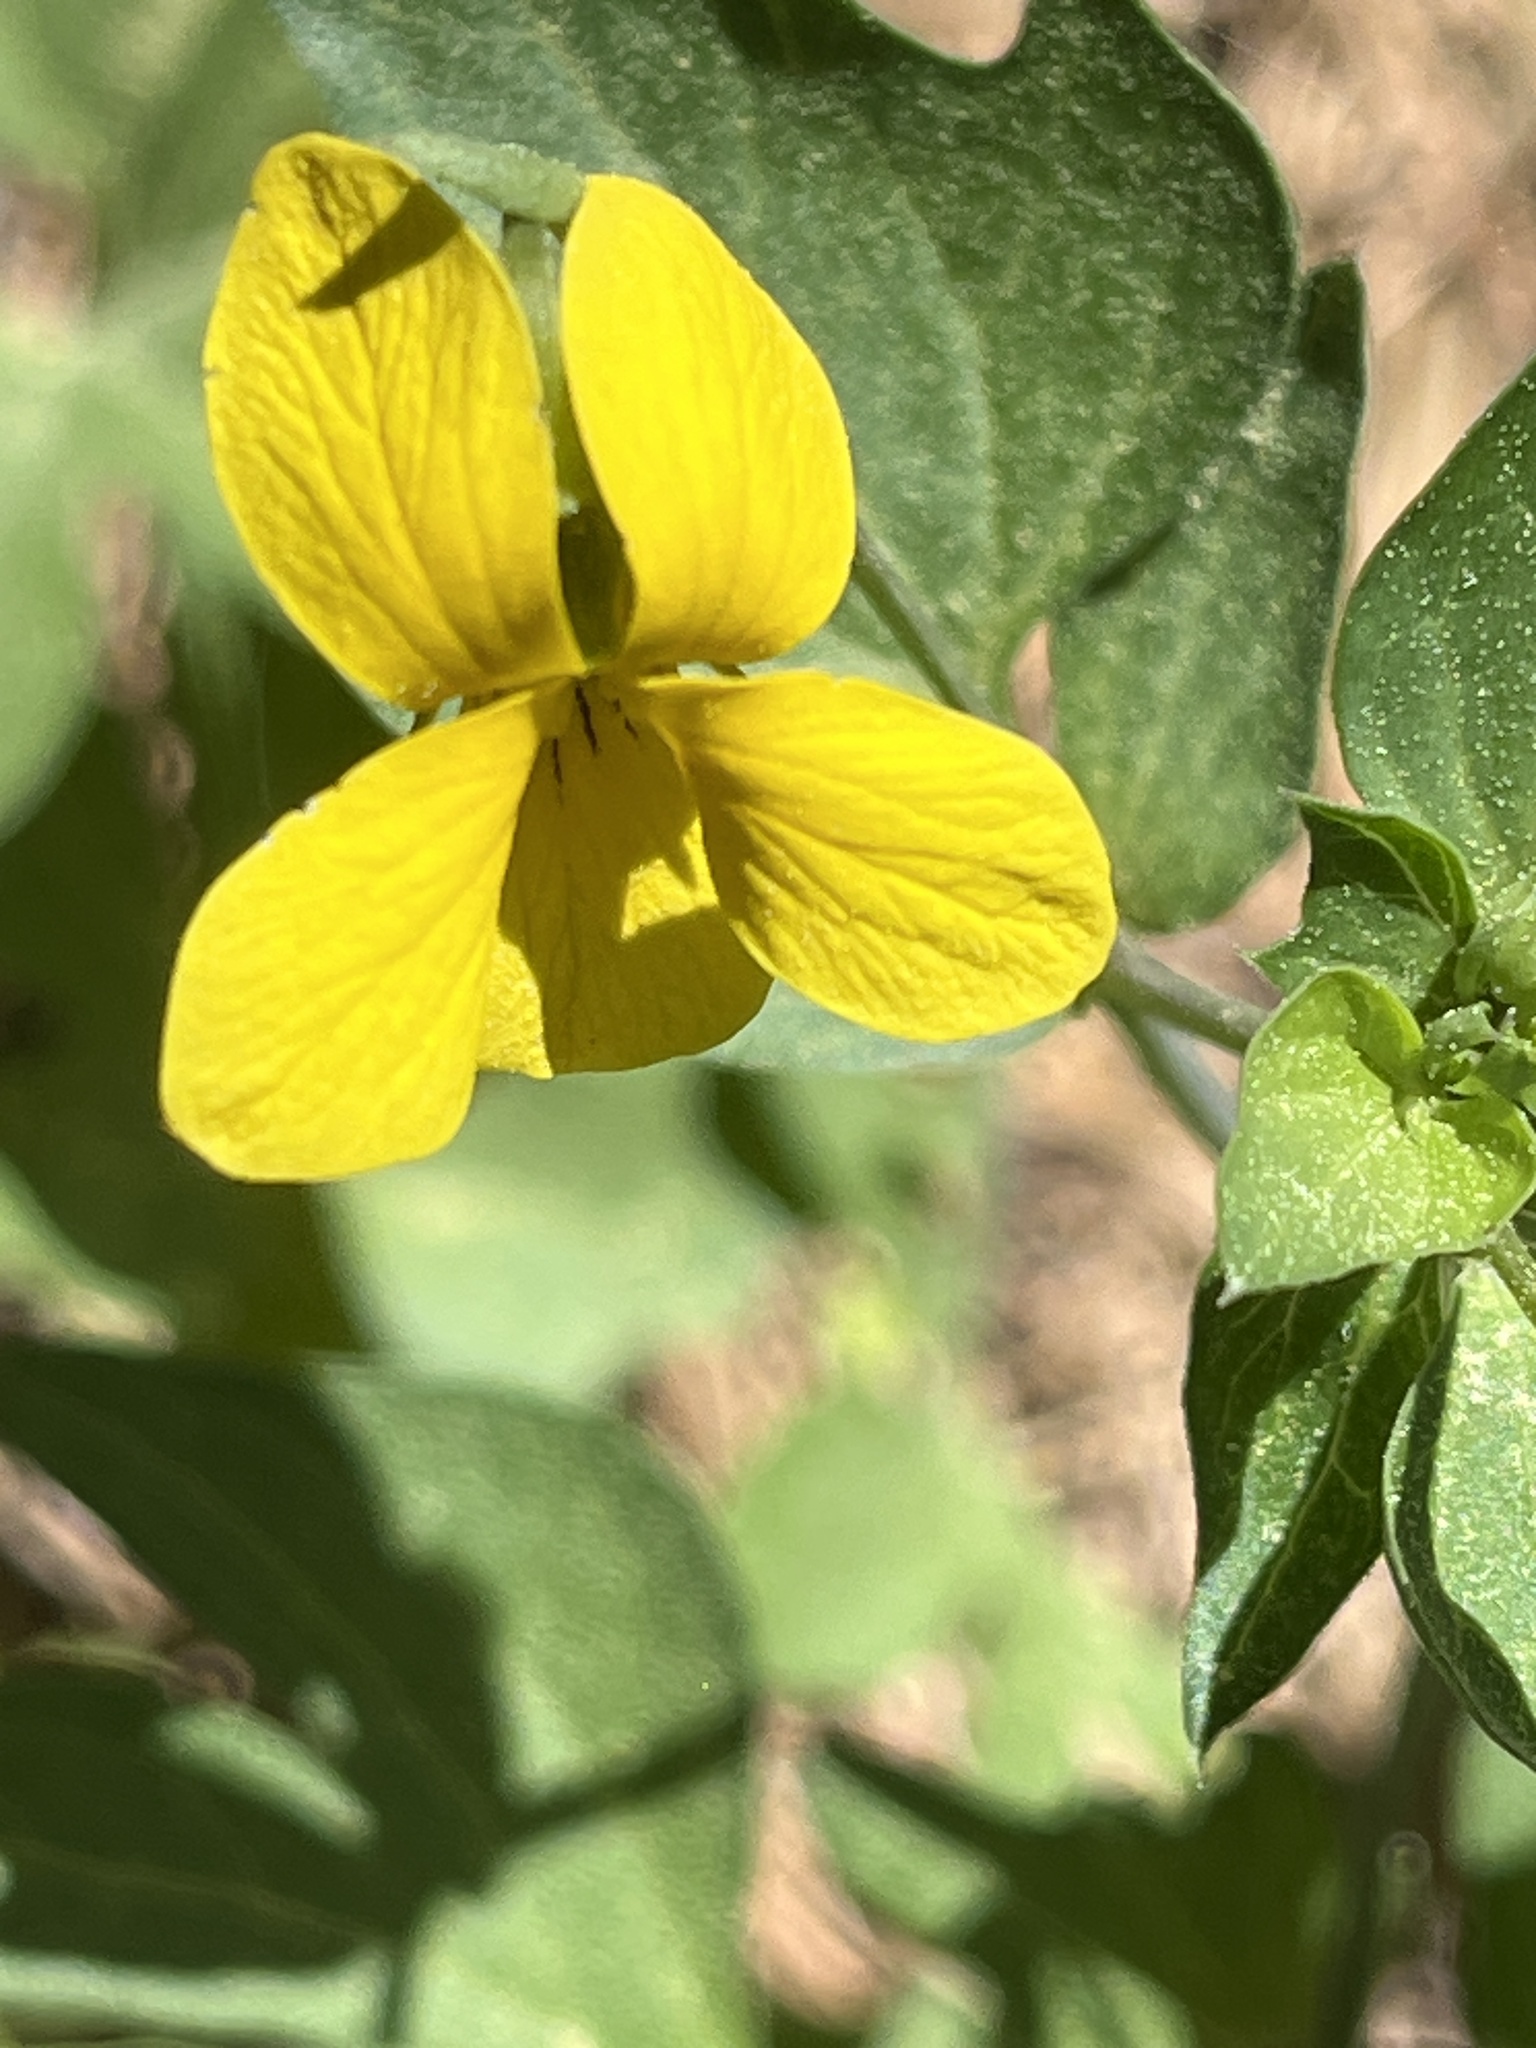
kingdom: Plantae
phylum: Tracheophyta
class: Magnoliopsida
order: Malpighiales
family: Violaceae
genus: Viola
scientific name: Viola lobata
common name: Pine violet
